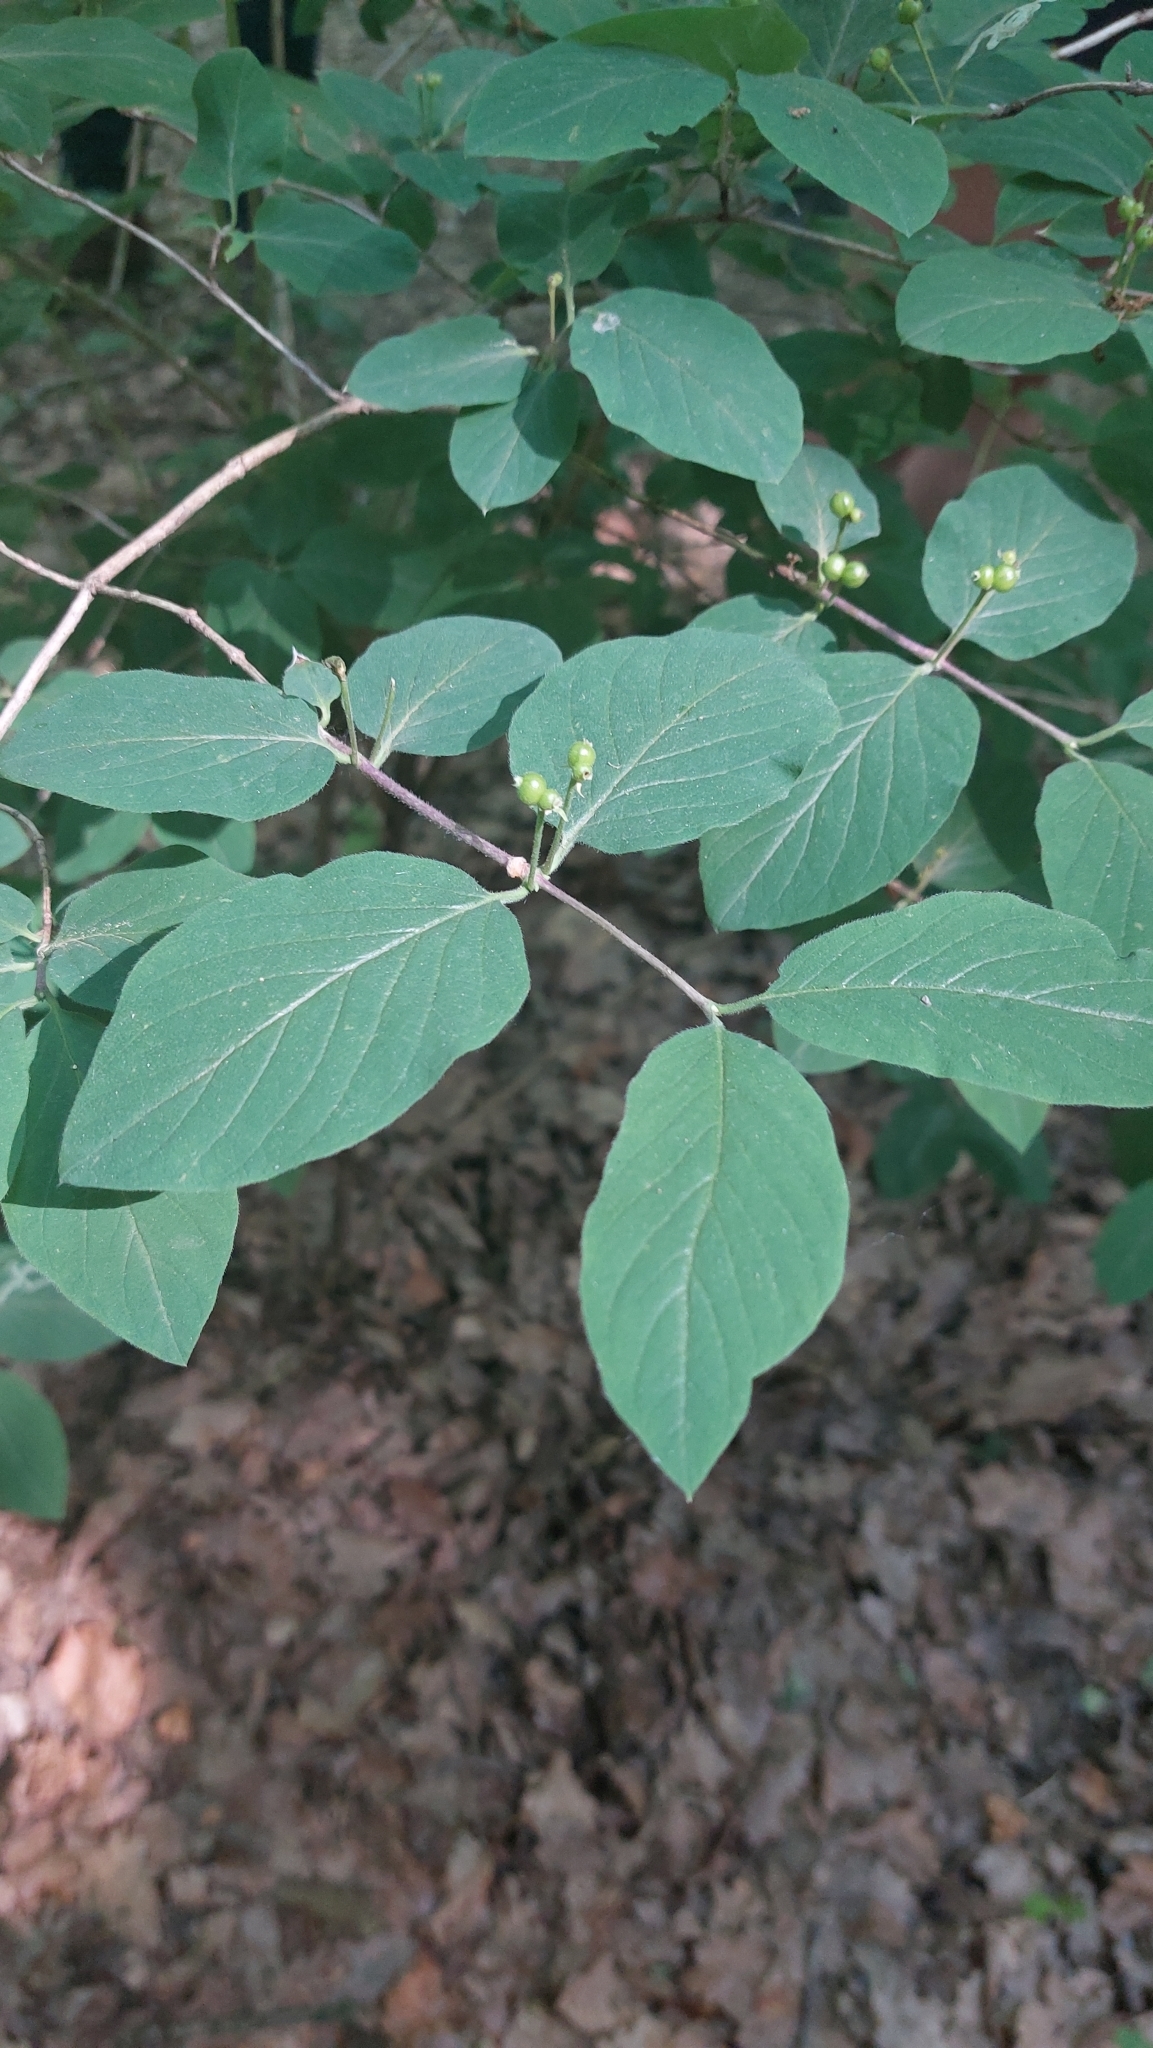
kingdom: Plantae
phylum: Tracheophyta
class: Magnoliopsida
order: Dipsacales
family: Caprifoliaceae
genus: Lonicera
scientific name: Lonicera xylosteum
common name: Fly honeysuckle
